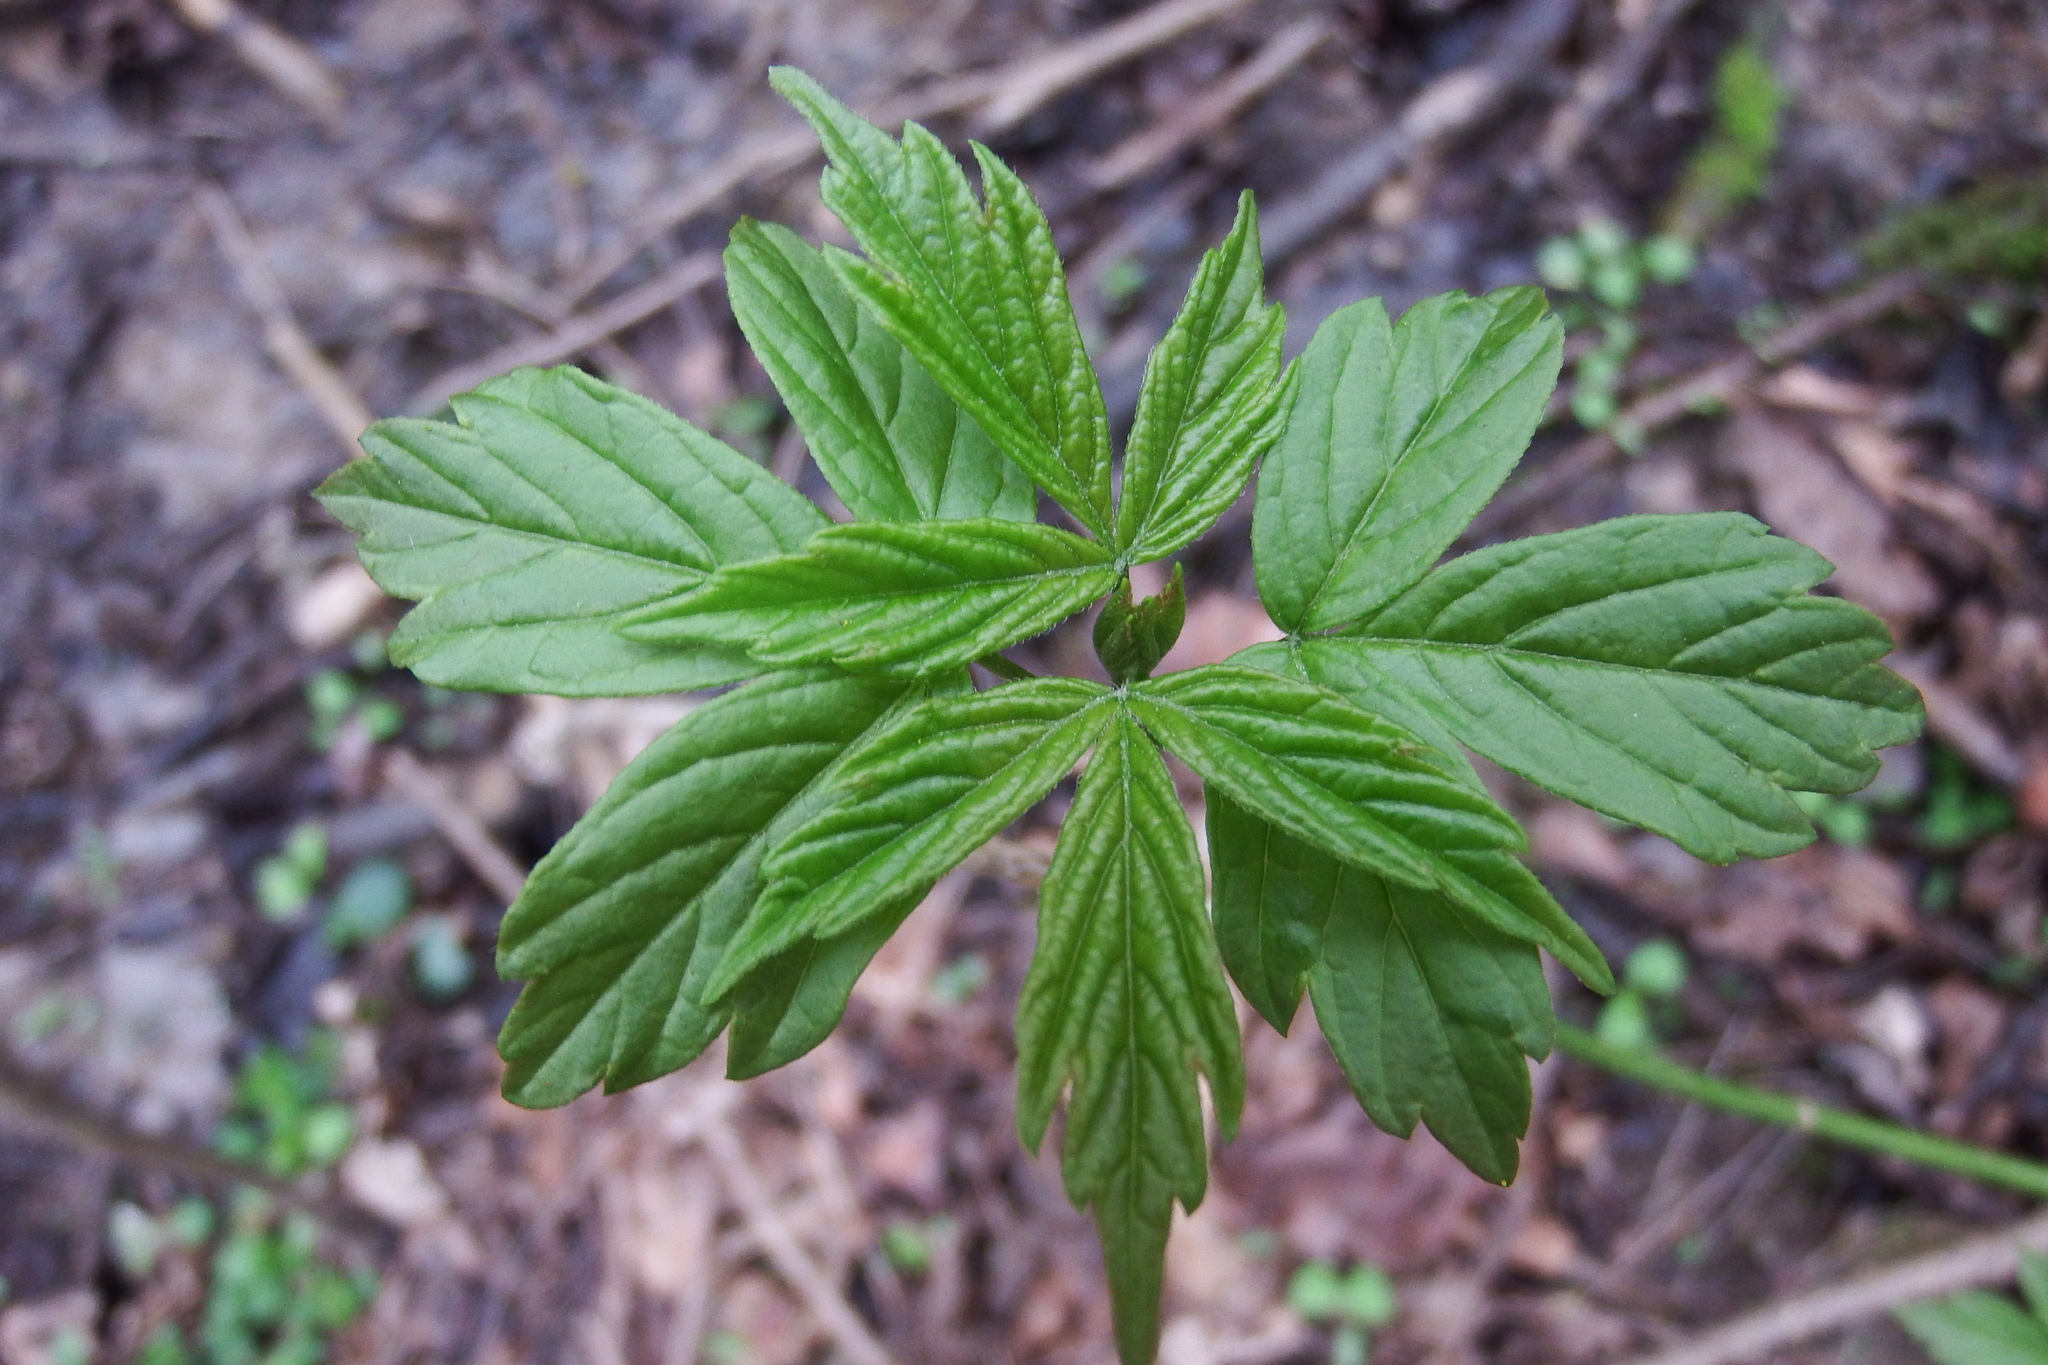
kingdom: Plantae
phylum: Tracheophyta
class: Magnoliopsida
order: Sapindales
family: Sapindaceae
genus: Acer
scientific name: Acer negundo
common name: Ashleaf maple
